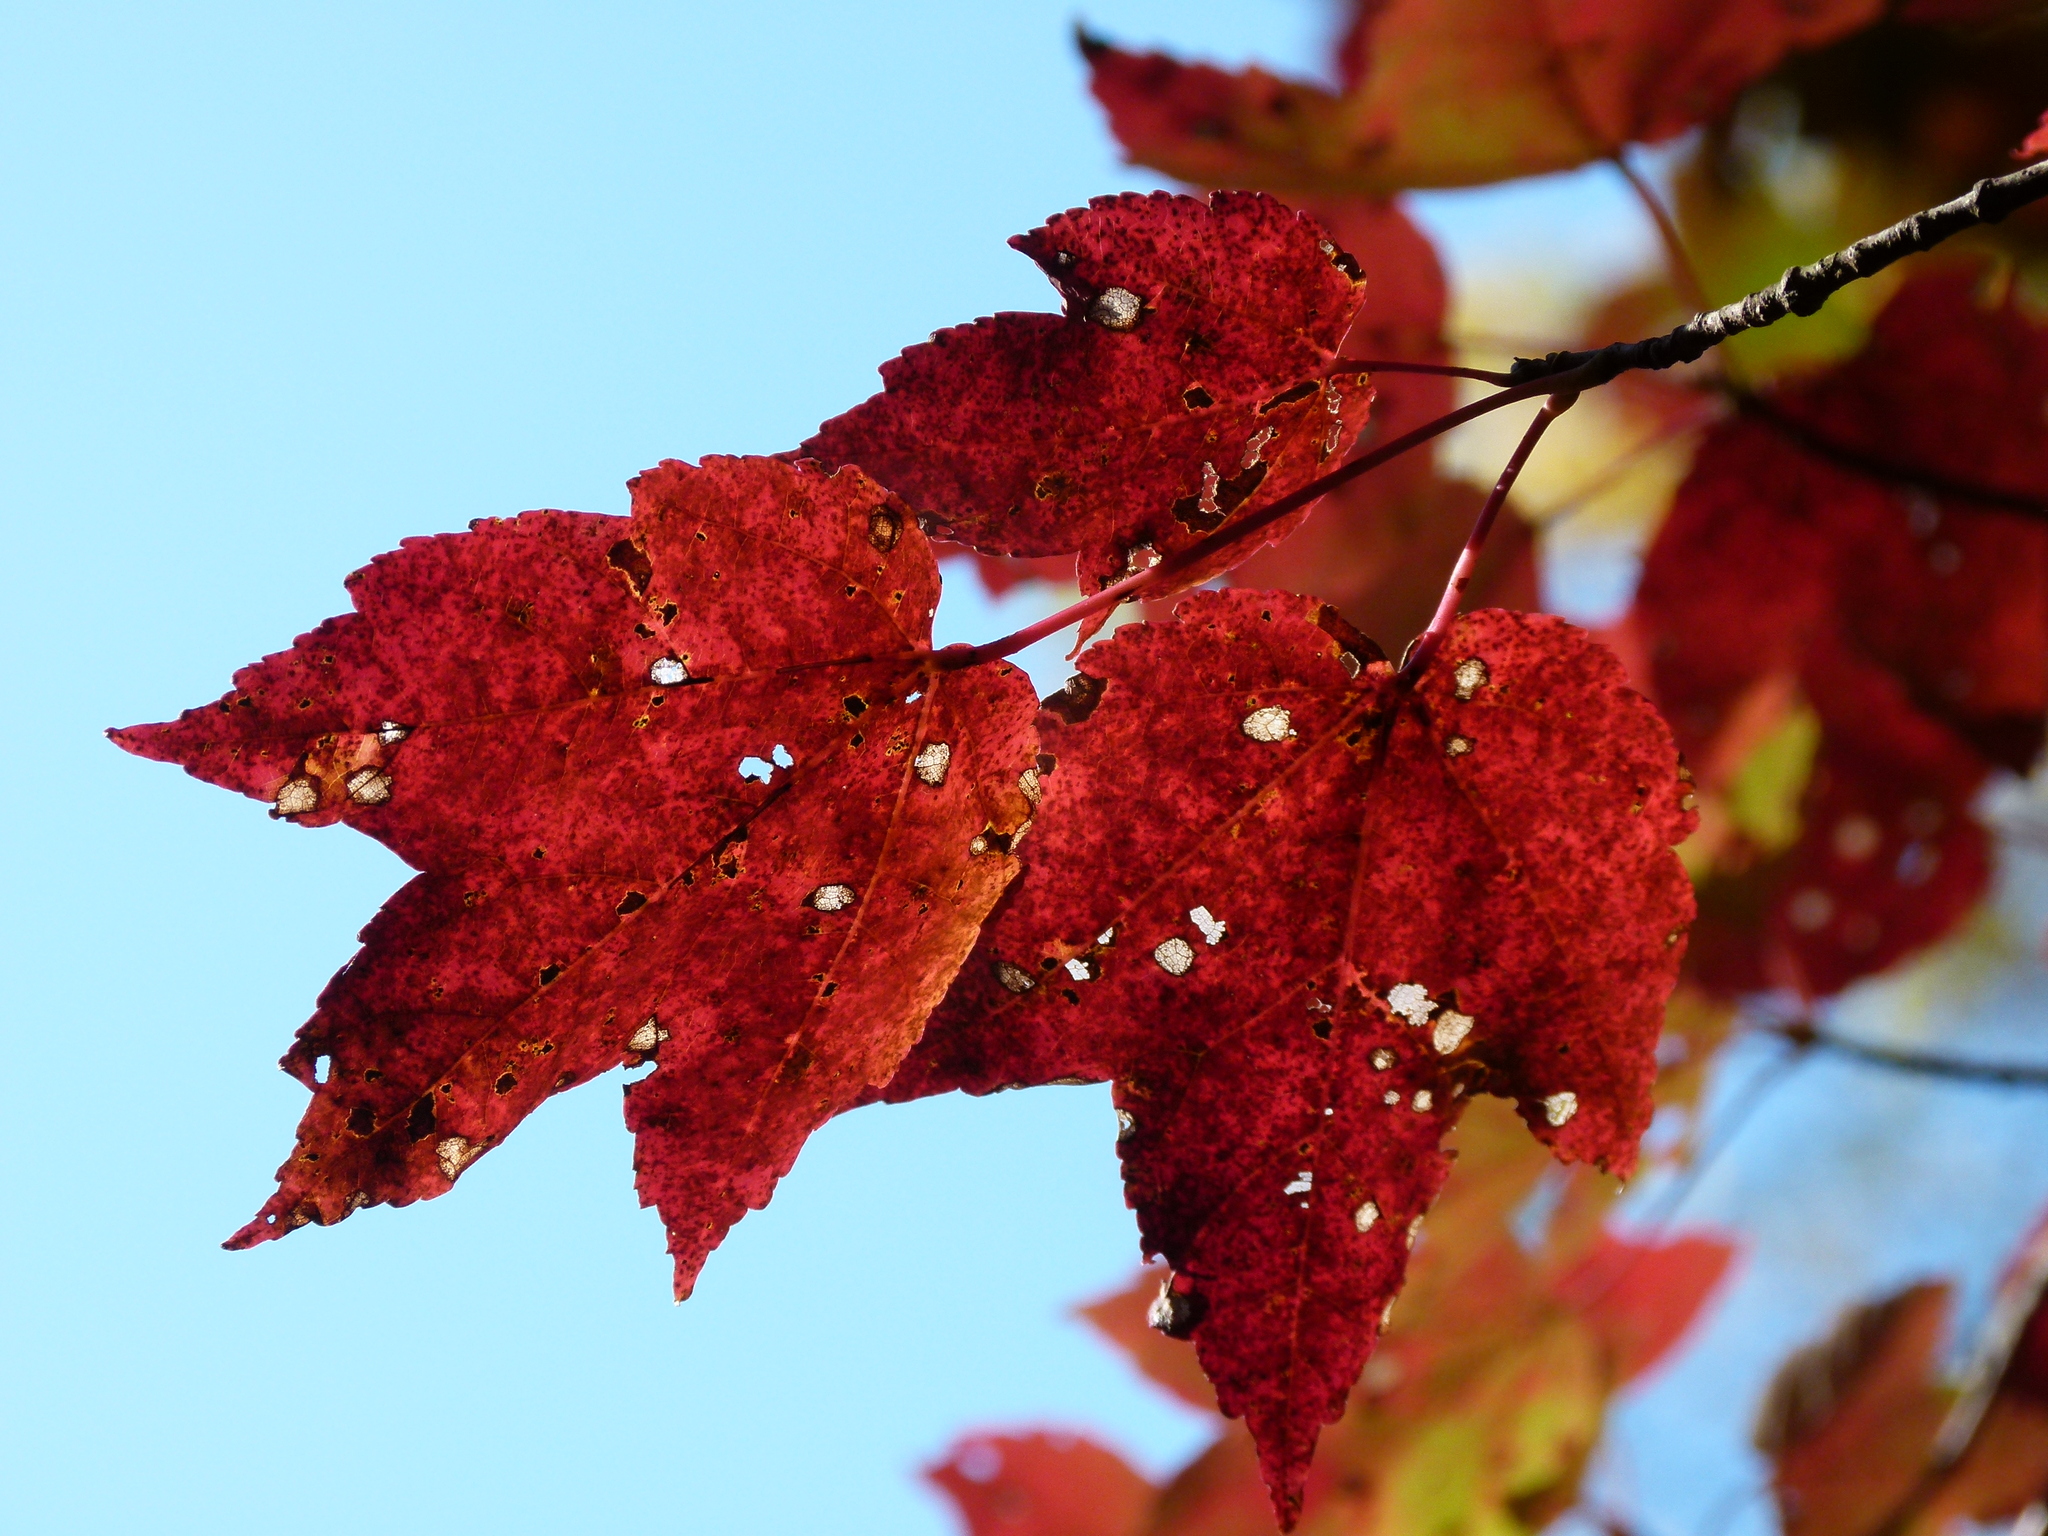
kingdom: Plantae
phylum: Tracheophyta
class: Magnoliopsida
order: Sapindales
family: Sapindaceae
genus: Acer
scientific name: Acer rubrum
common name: Red maple
